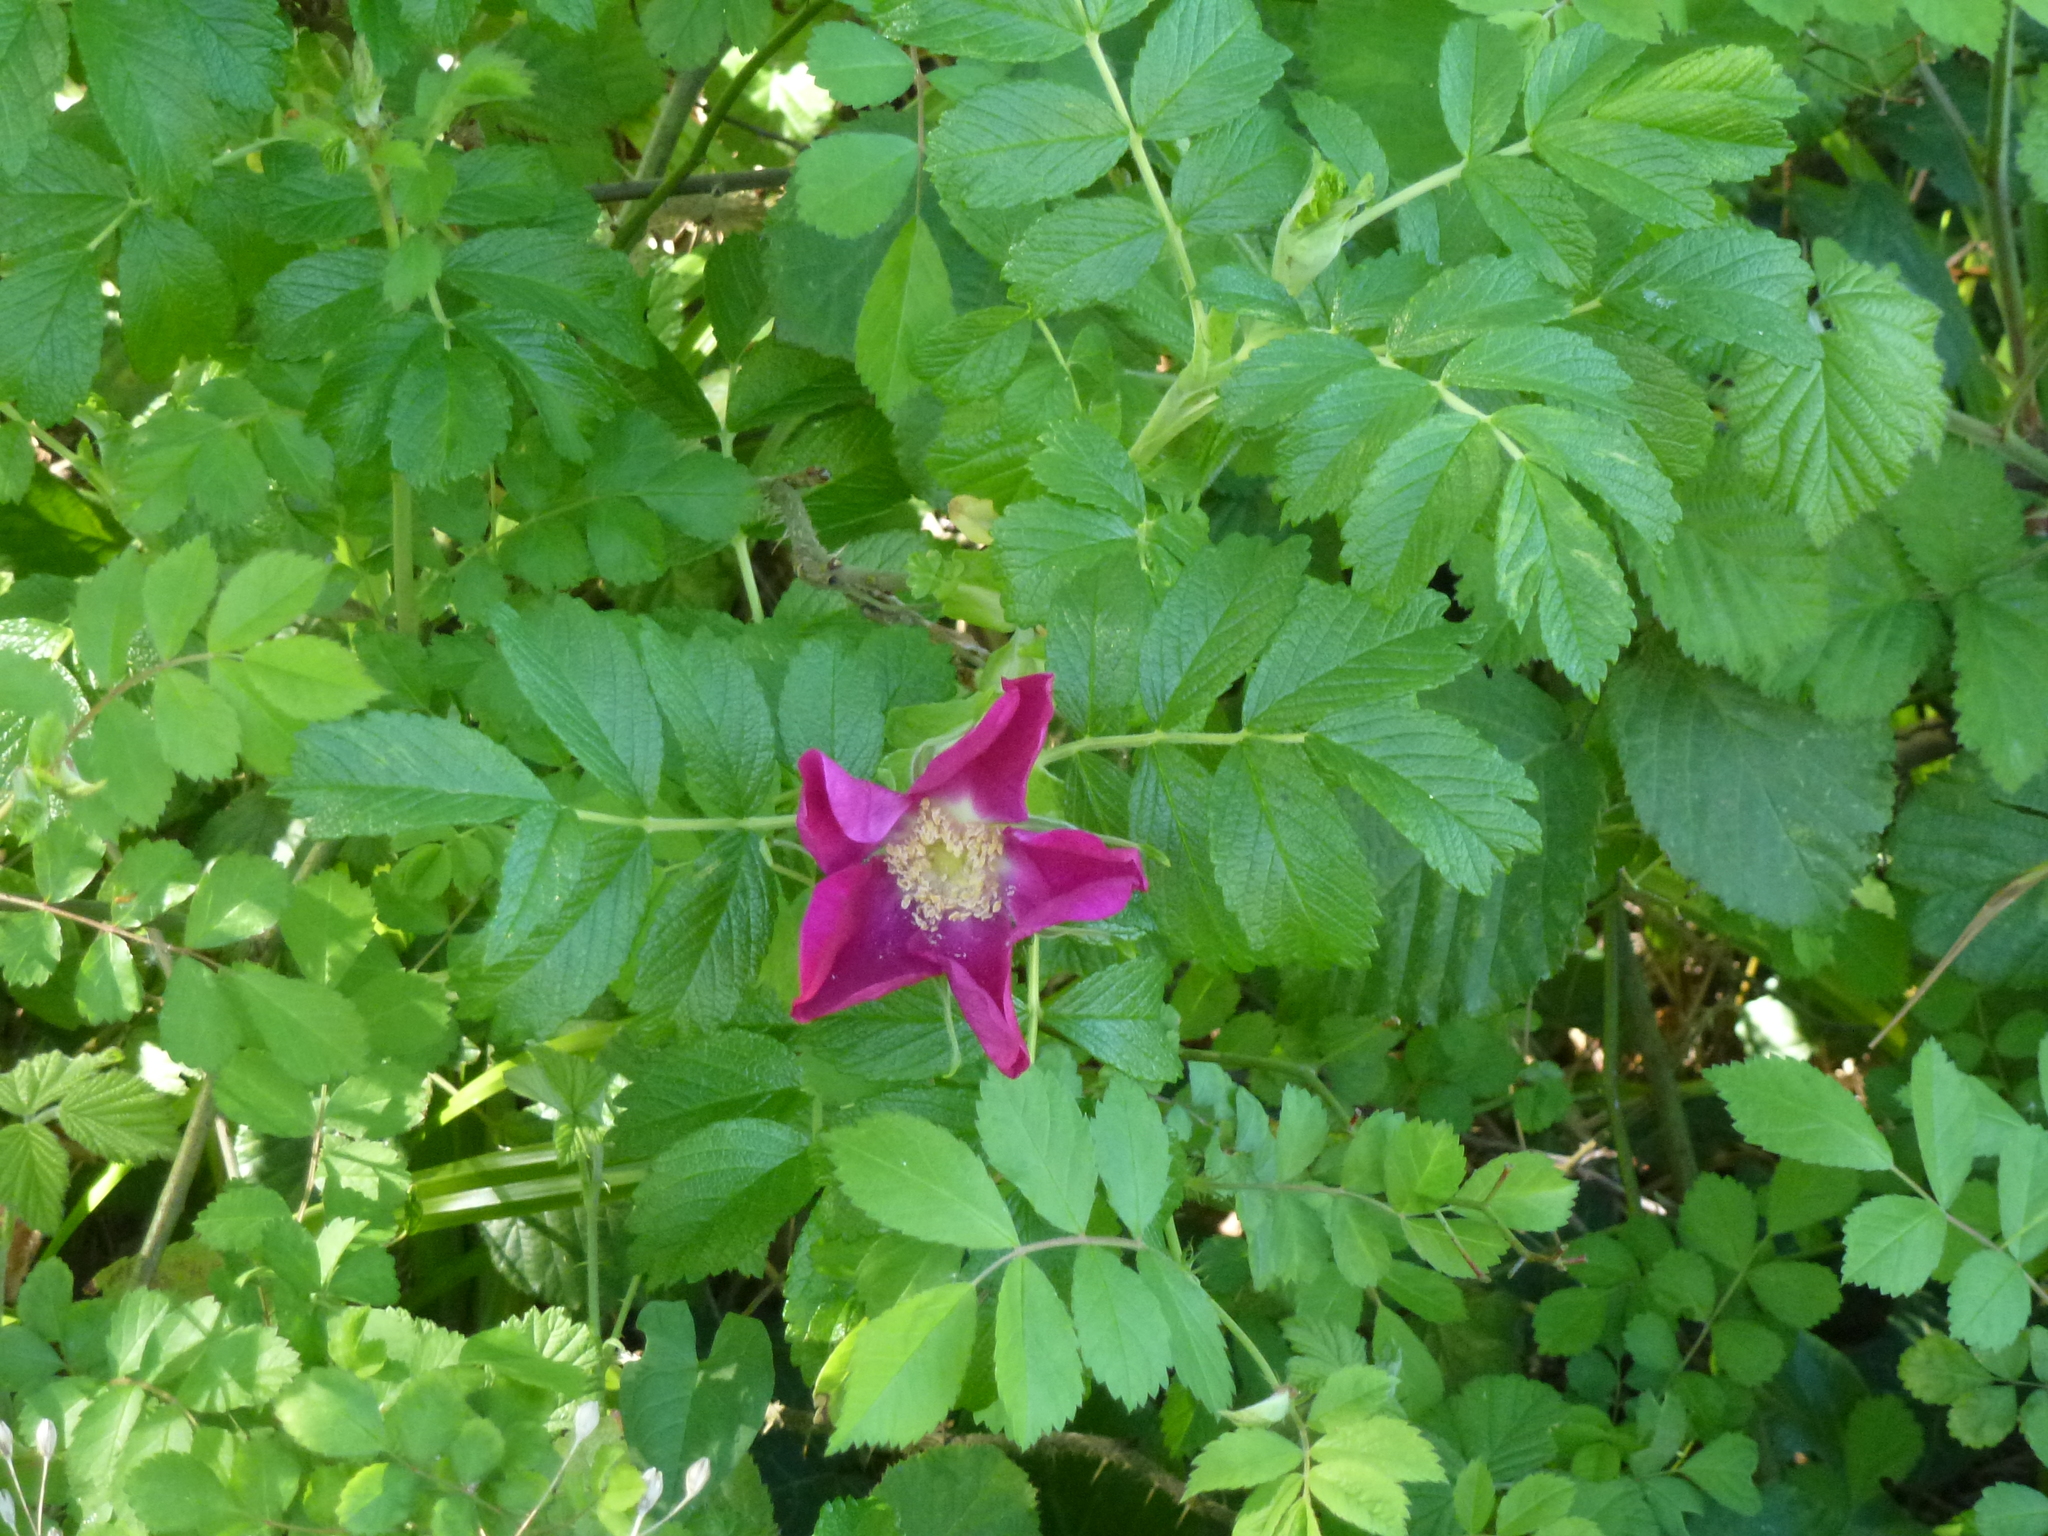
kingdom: Plantae
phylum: Tracheophyta
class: Magnoliopsida
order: Rosales
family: Rosaceae
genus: Rosa
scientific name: Rosa rugosa
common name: Japanese rose
